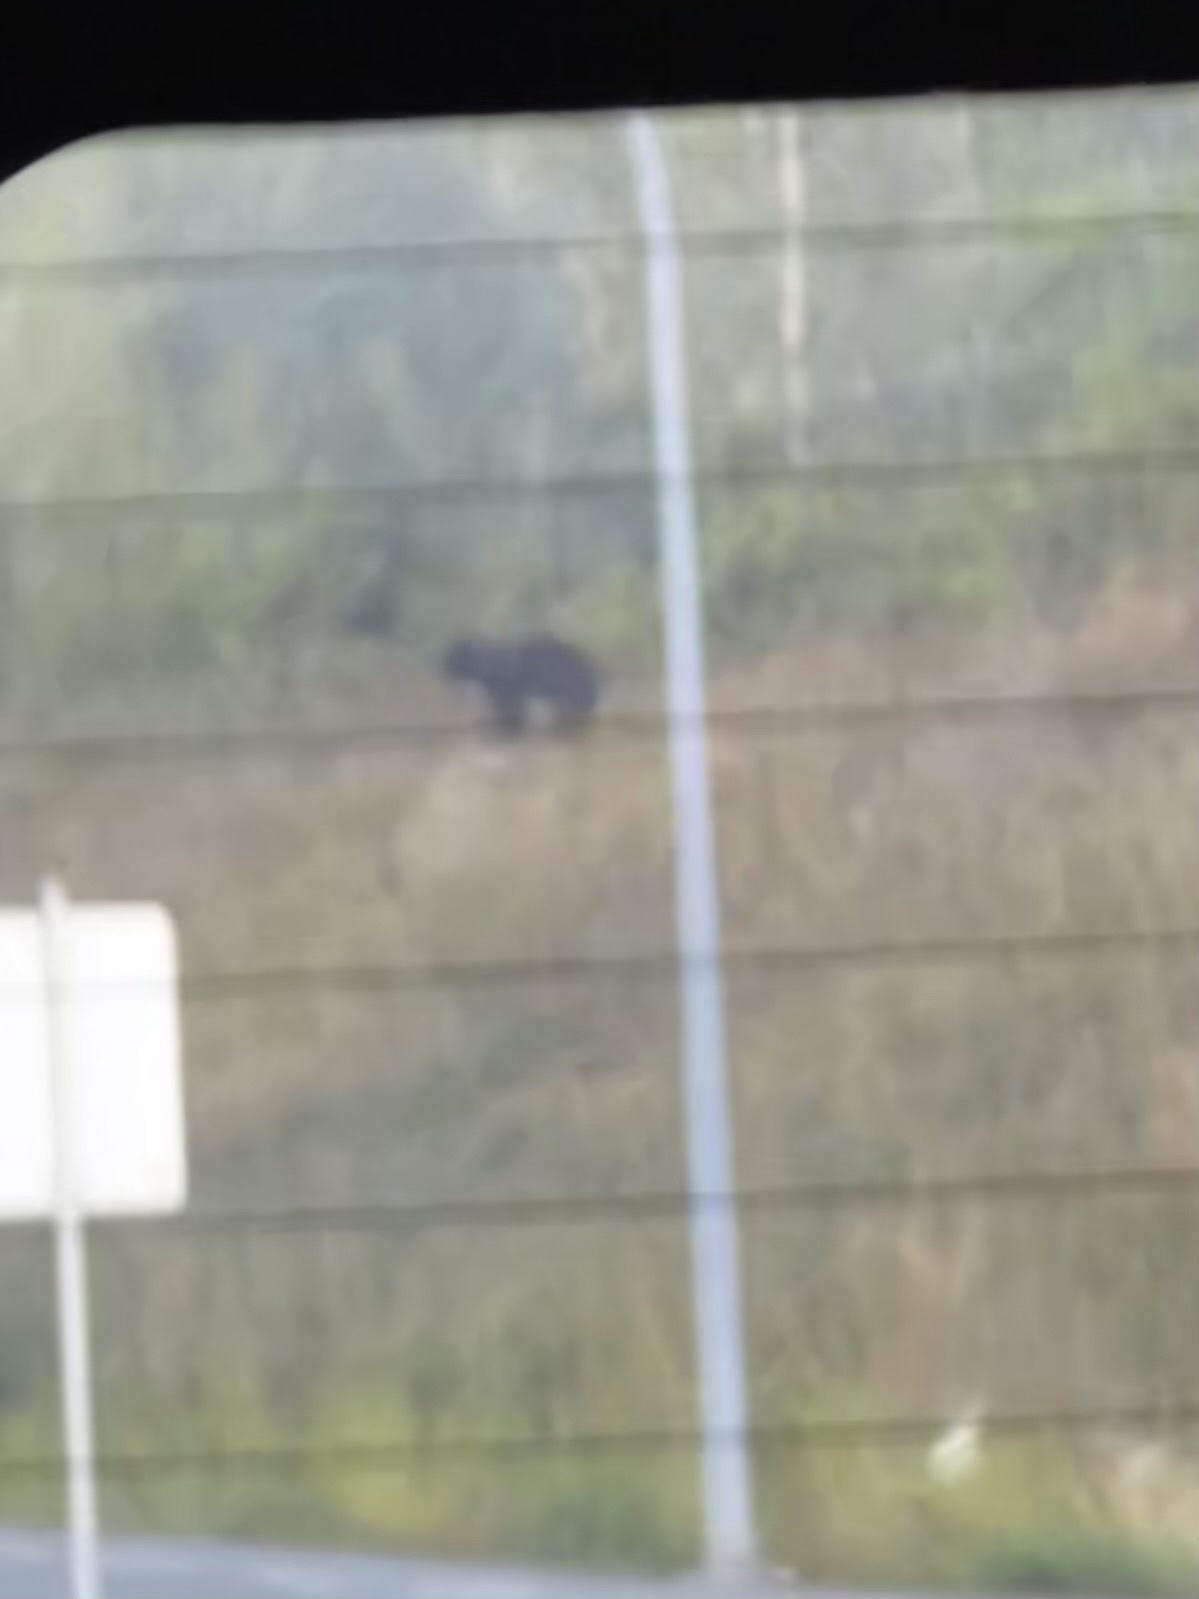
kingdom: Animalia
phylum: Chordata
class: Mammalia
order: Carnivora
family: Ursidae
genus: Ursus
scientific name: Ursus americanus
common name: American black bear
